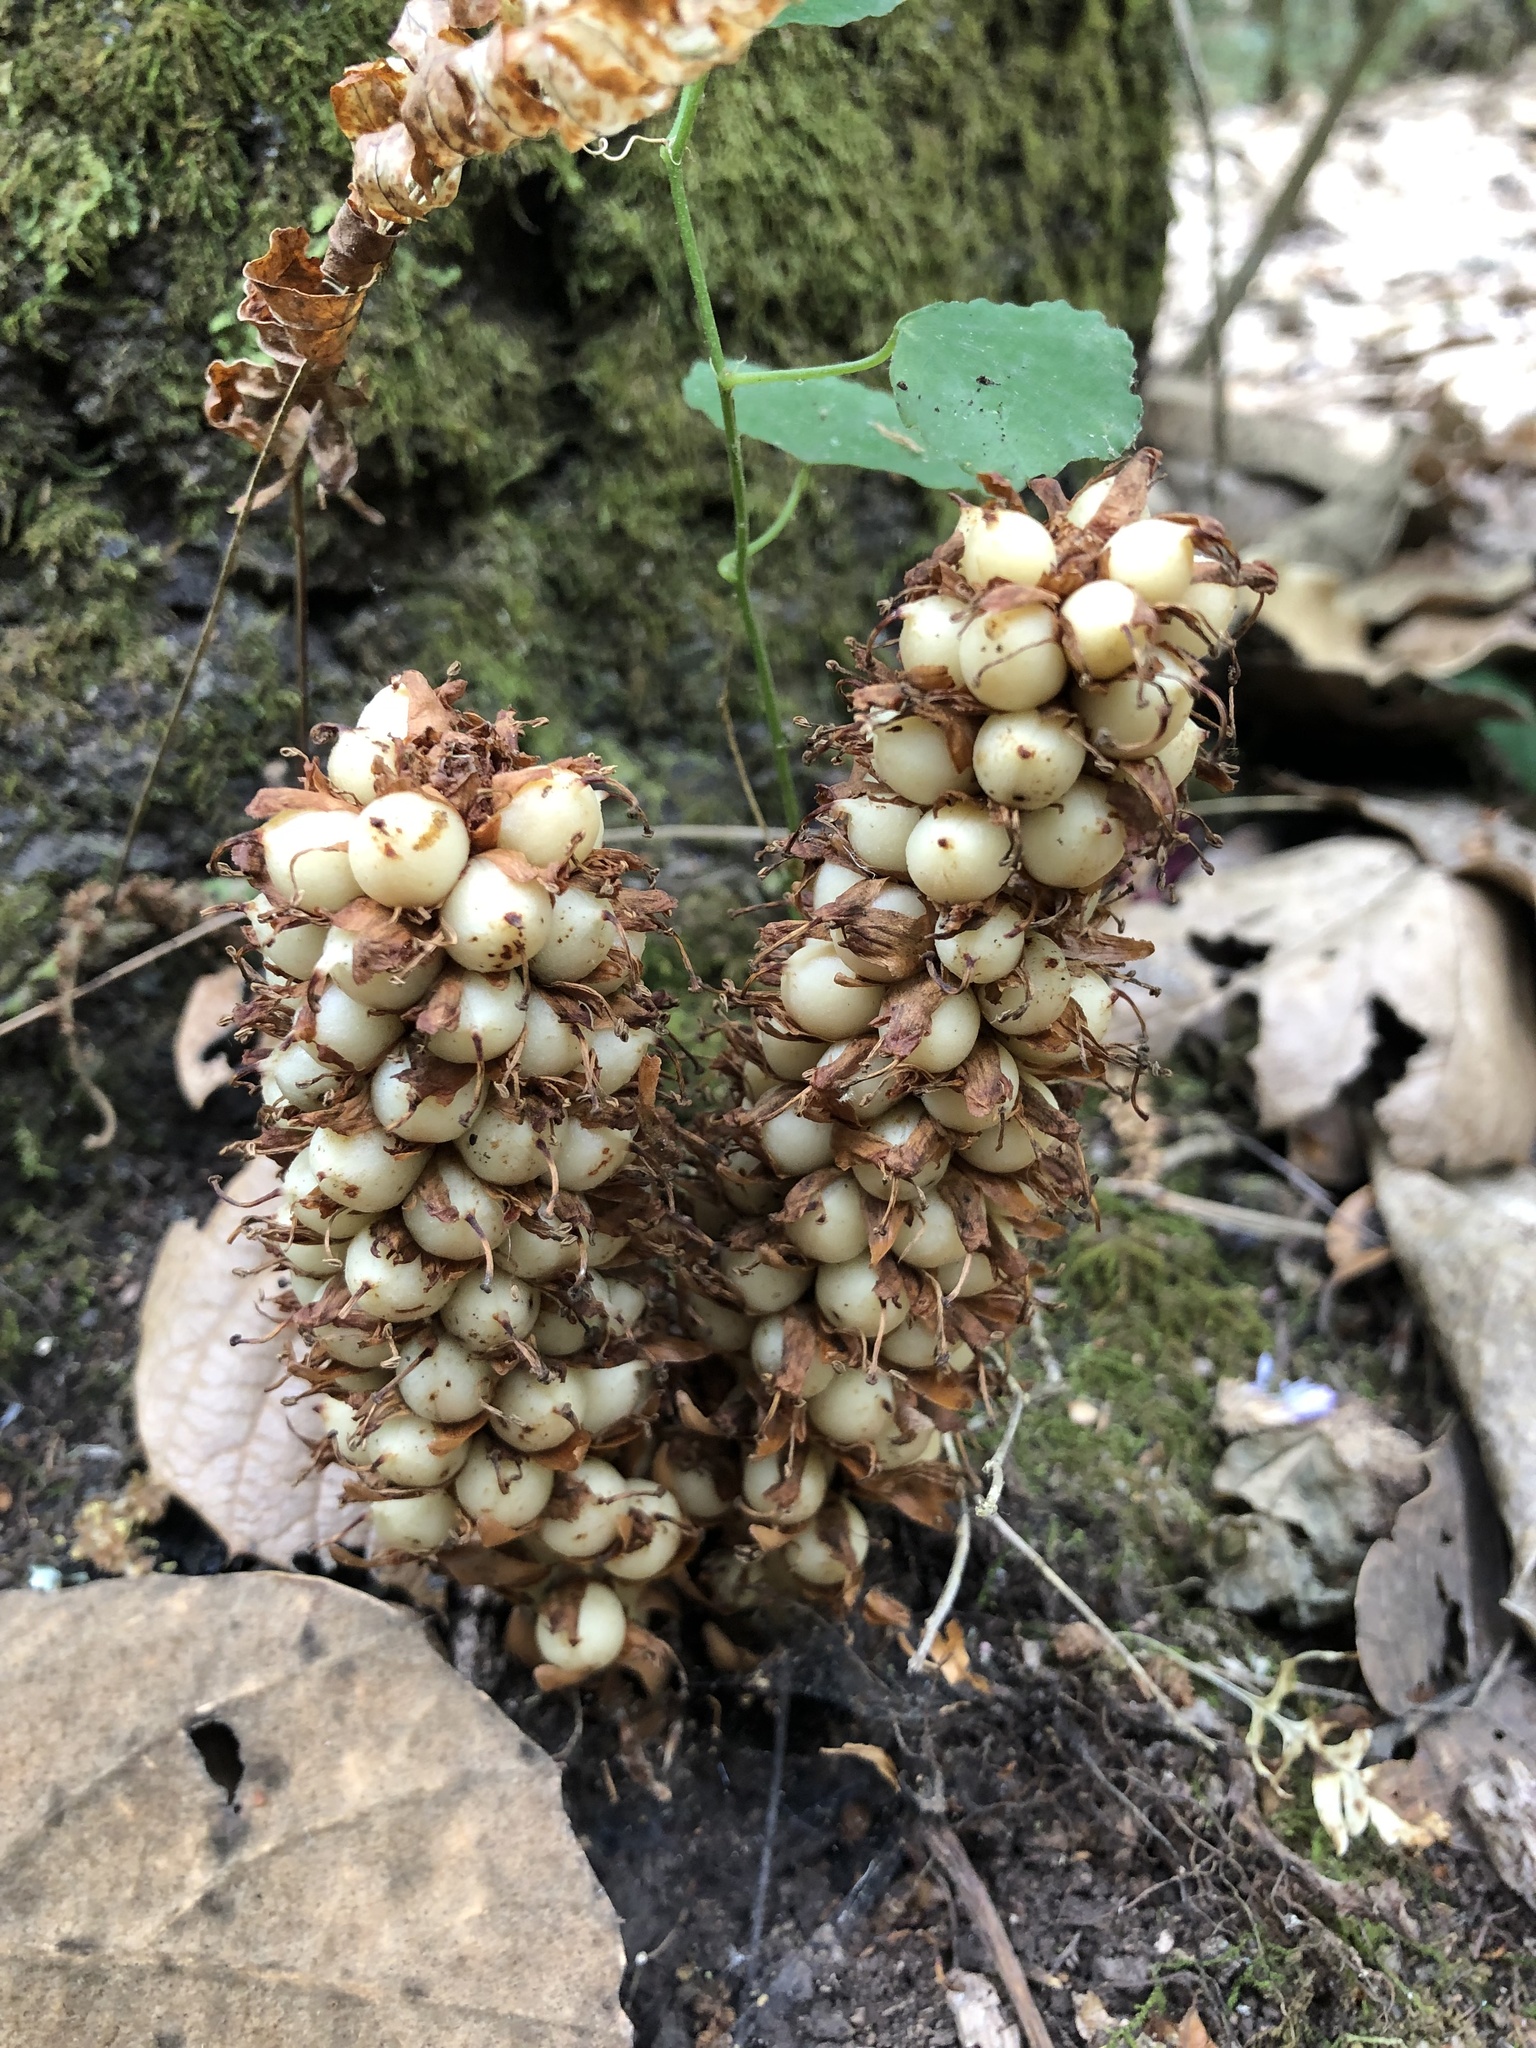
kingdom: Plantae
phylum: Tracheophyta
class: Magnoliopsida
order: Lamiales
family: Orobanchaceae
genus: Conopholis
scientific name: Conopholis alpina
